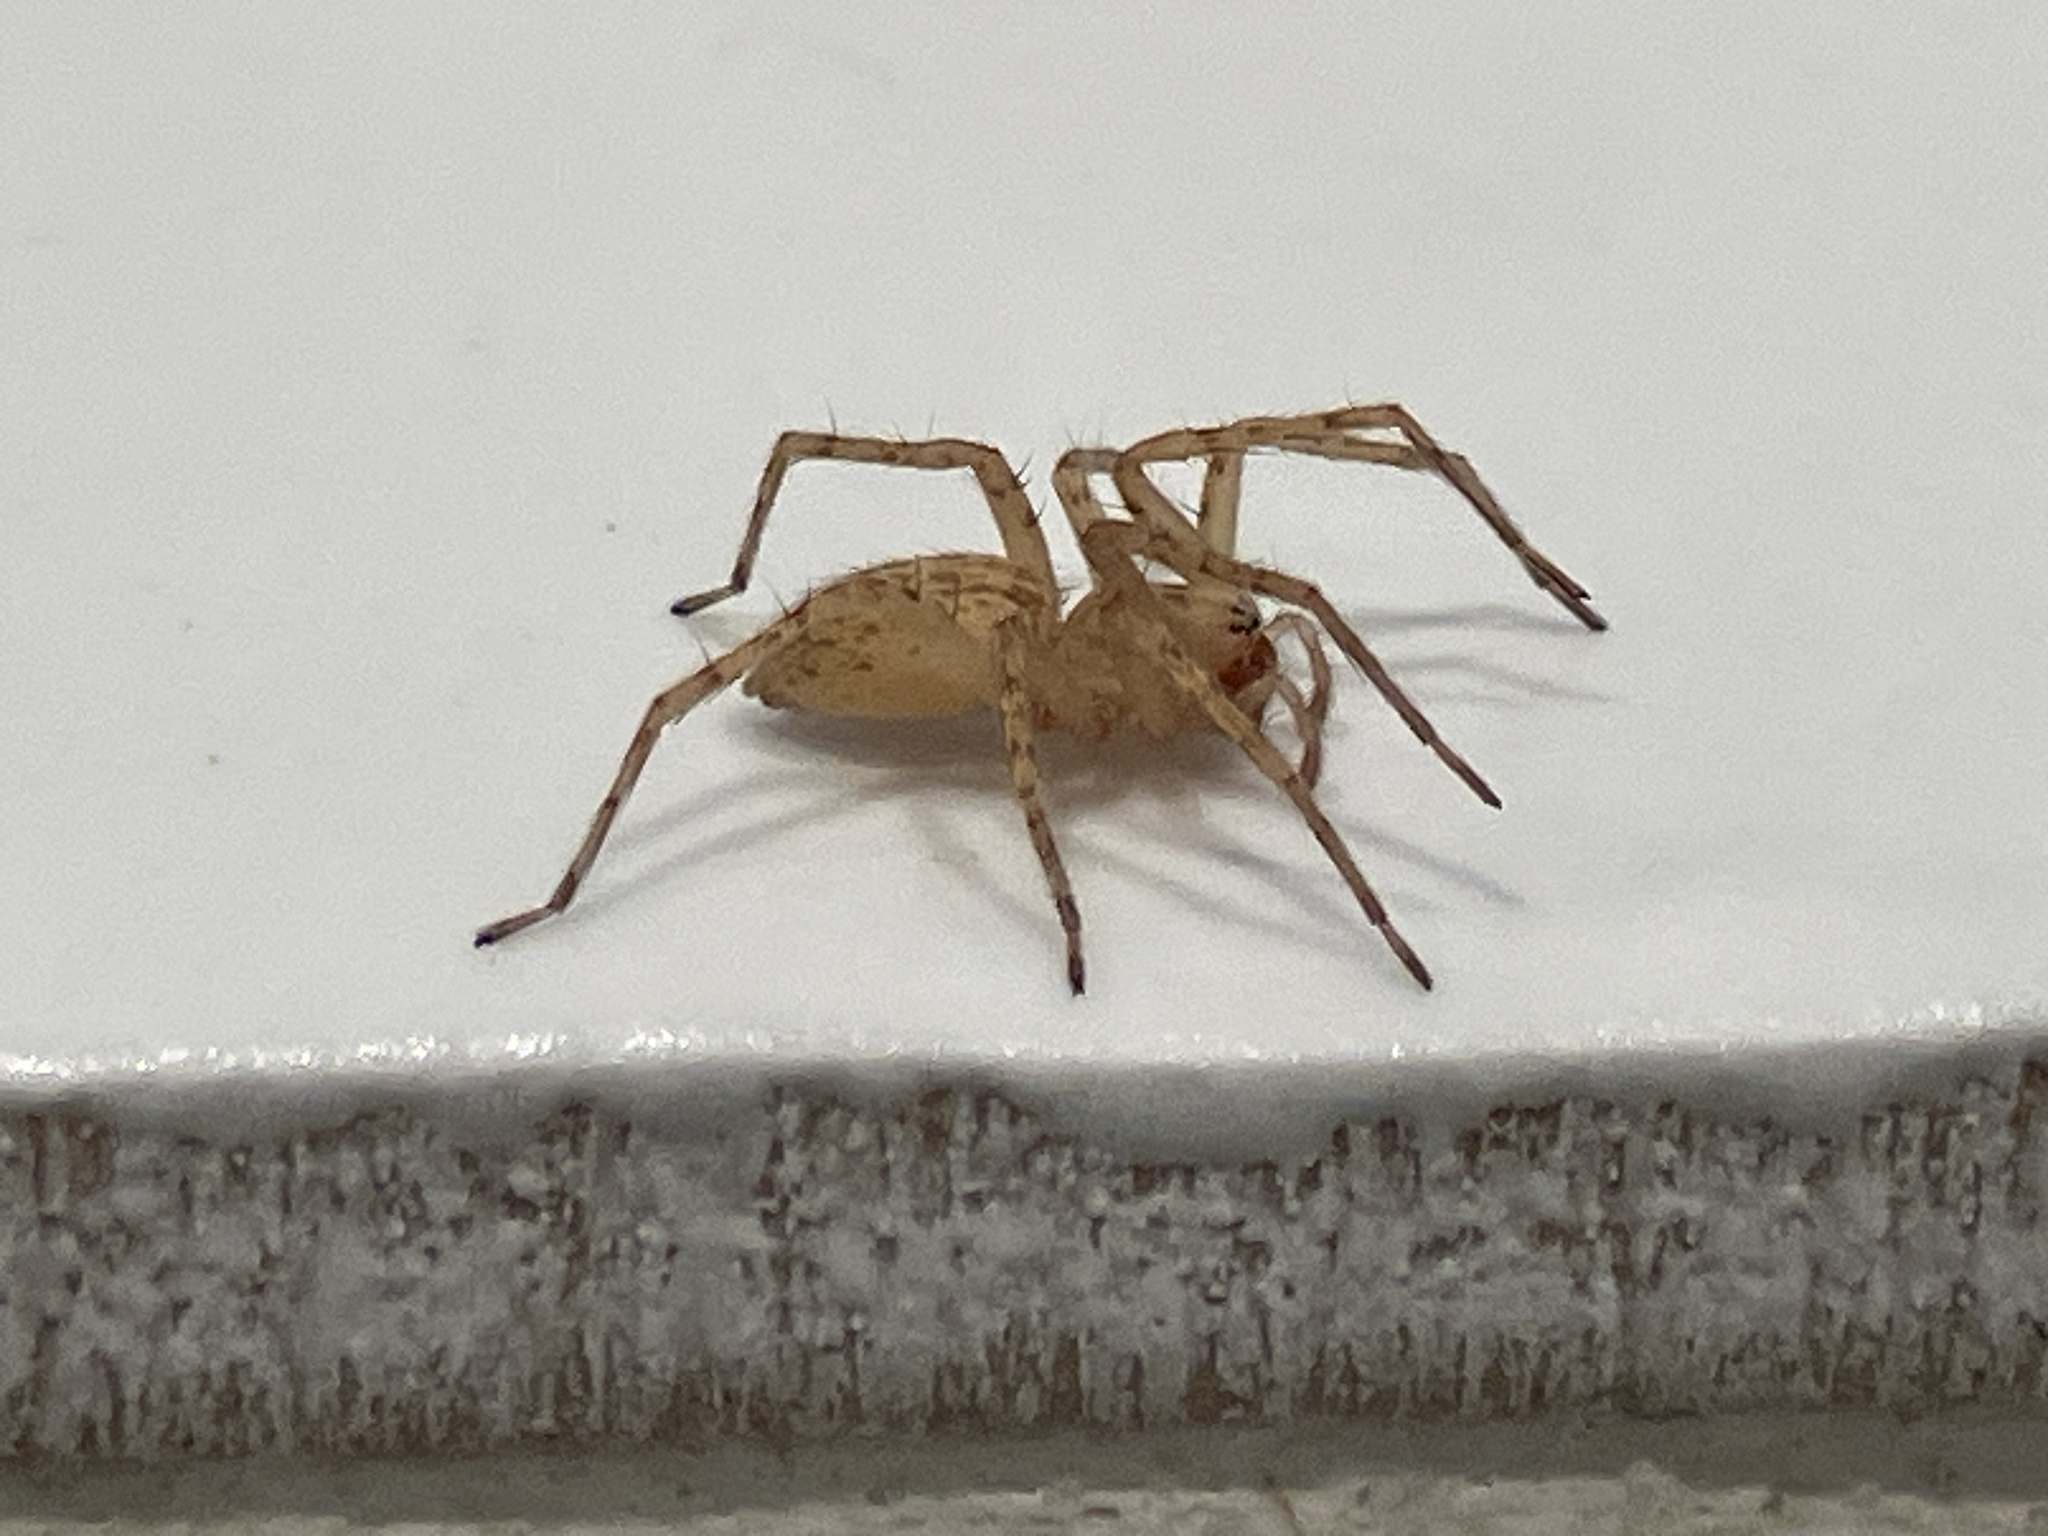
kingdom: Animalia
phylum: Arthropoda
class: Arachnida
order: Araneae
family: Anyphaenidae
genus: Anyphaena
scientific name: Anyphaena numida
